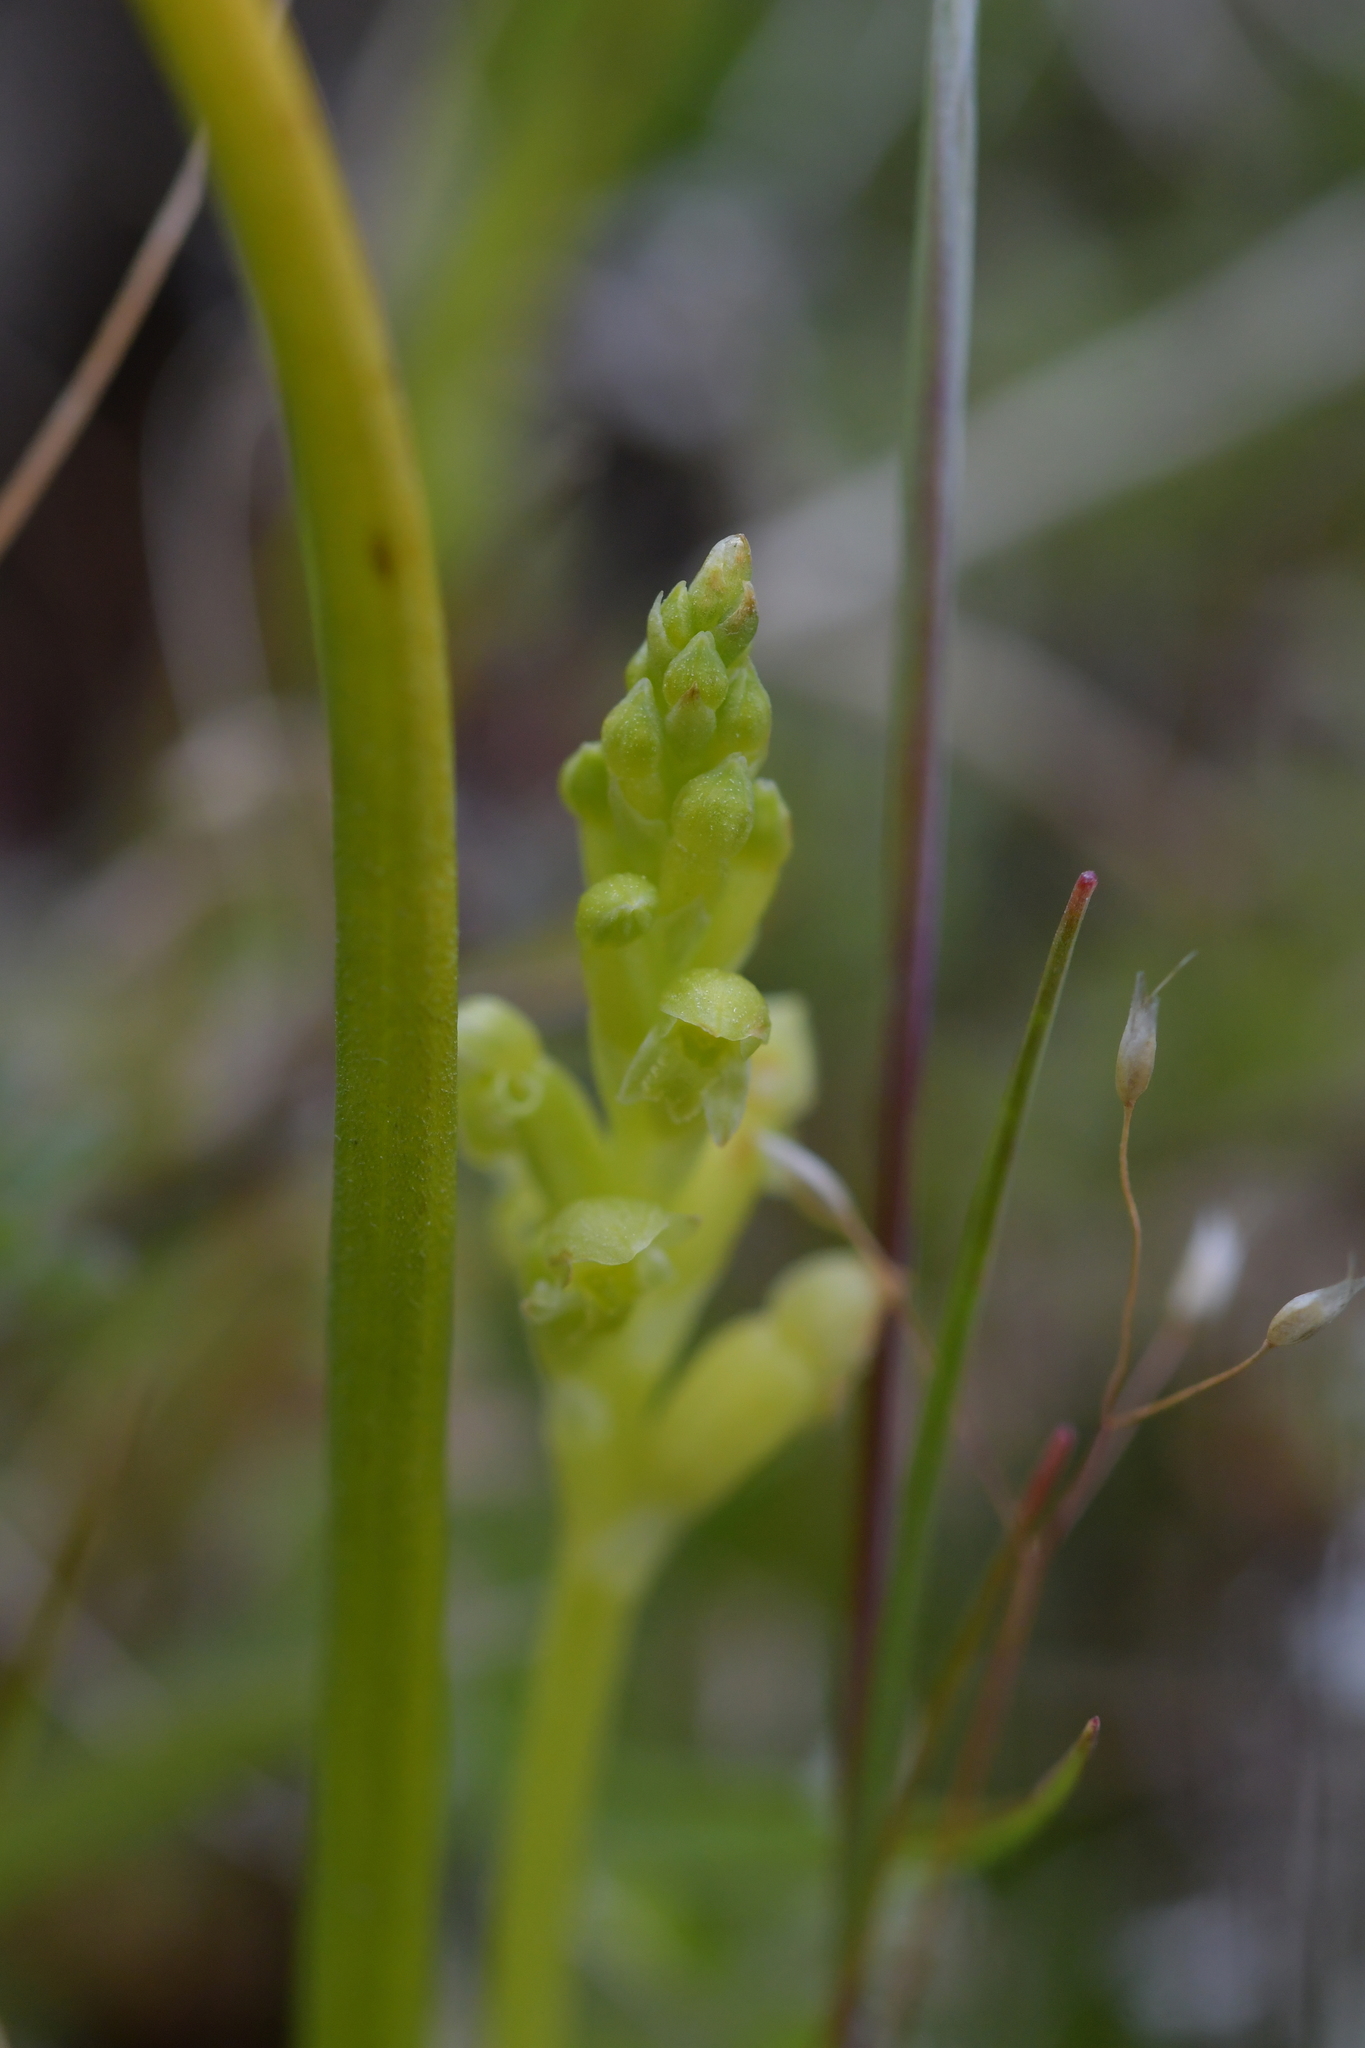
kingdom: Plantae
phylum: Tracheophyta
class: Liliopsida
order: Asparagales
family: Orchidaceae
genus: Microtis
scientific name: Microtis unifolia
